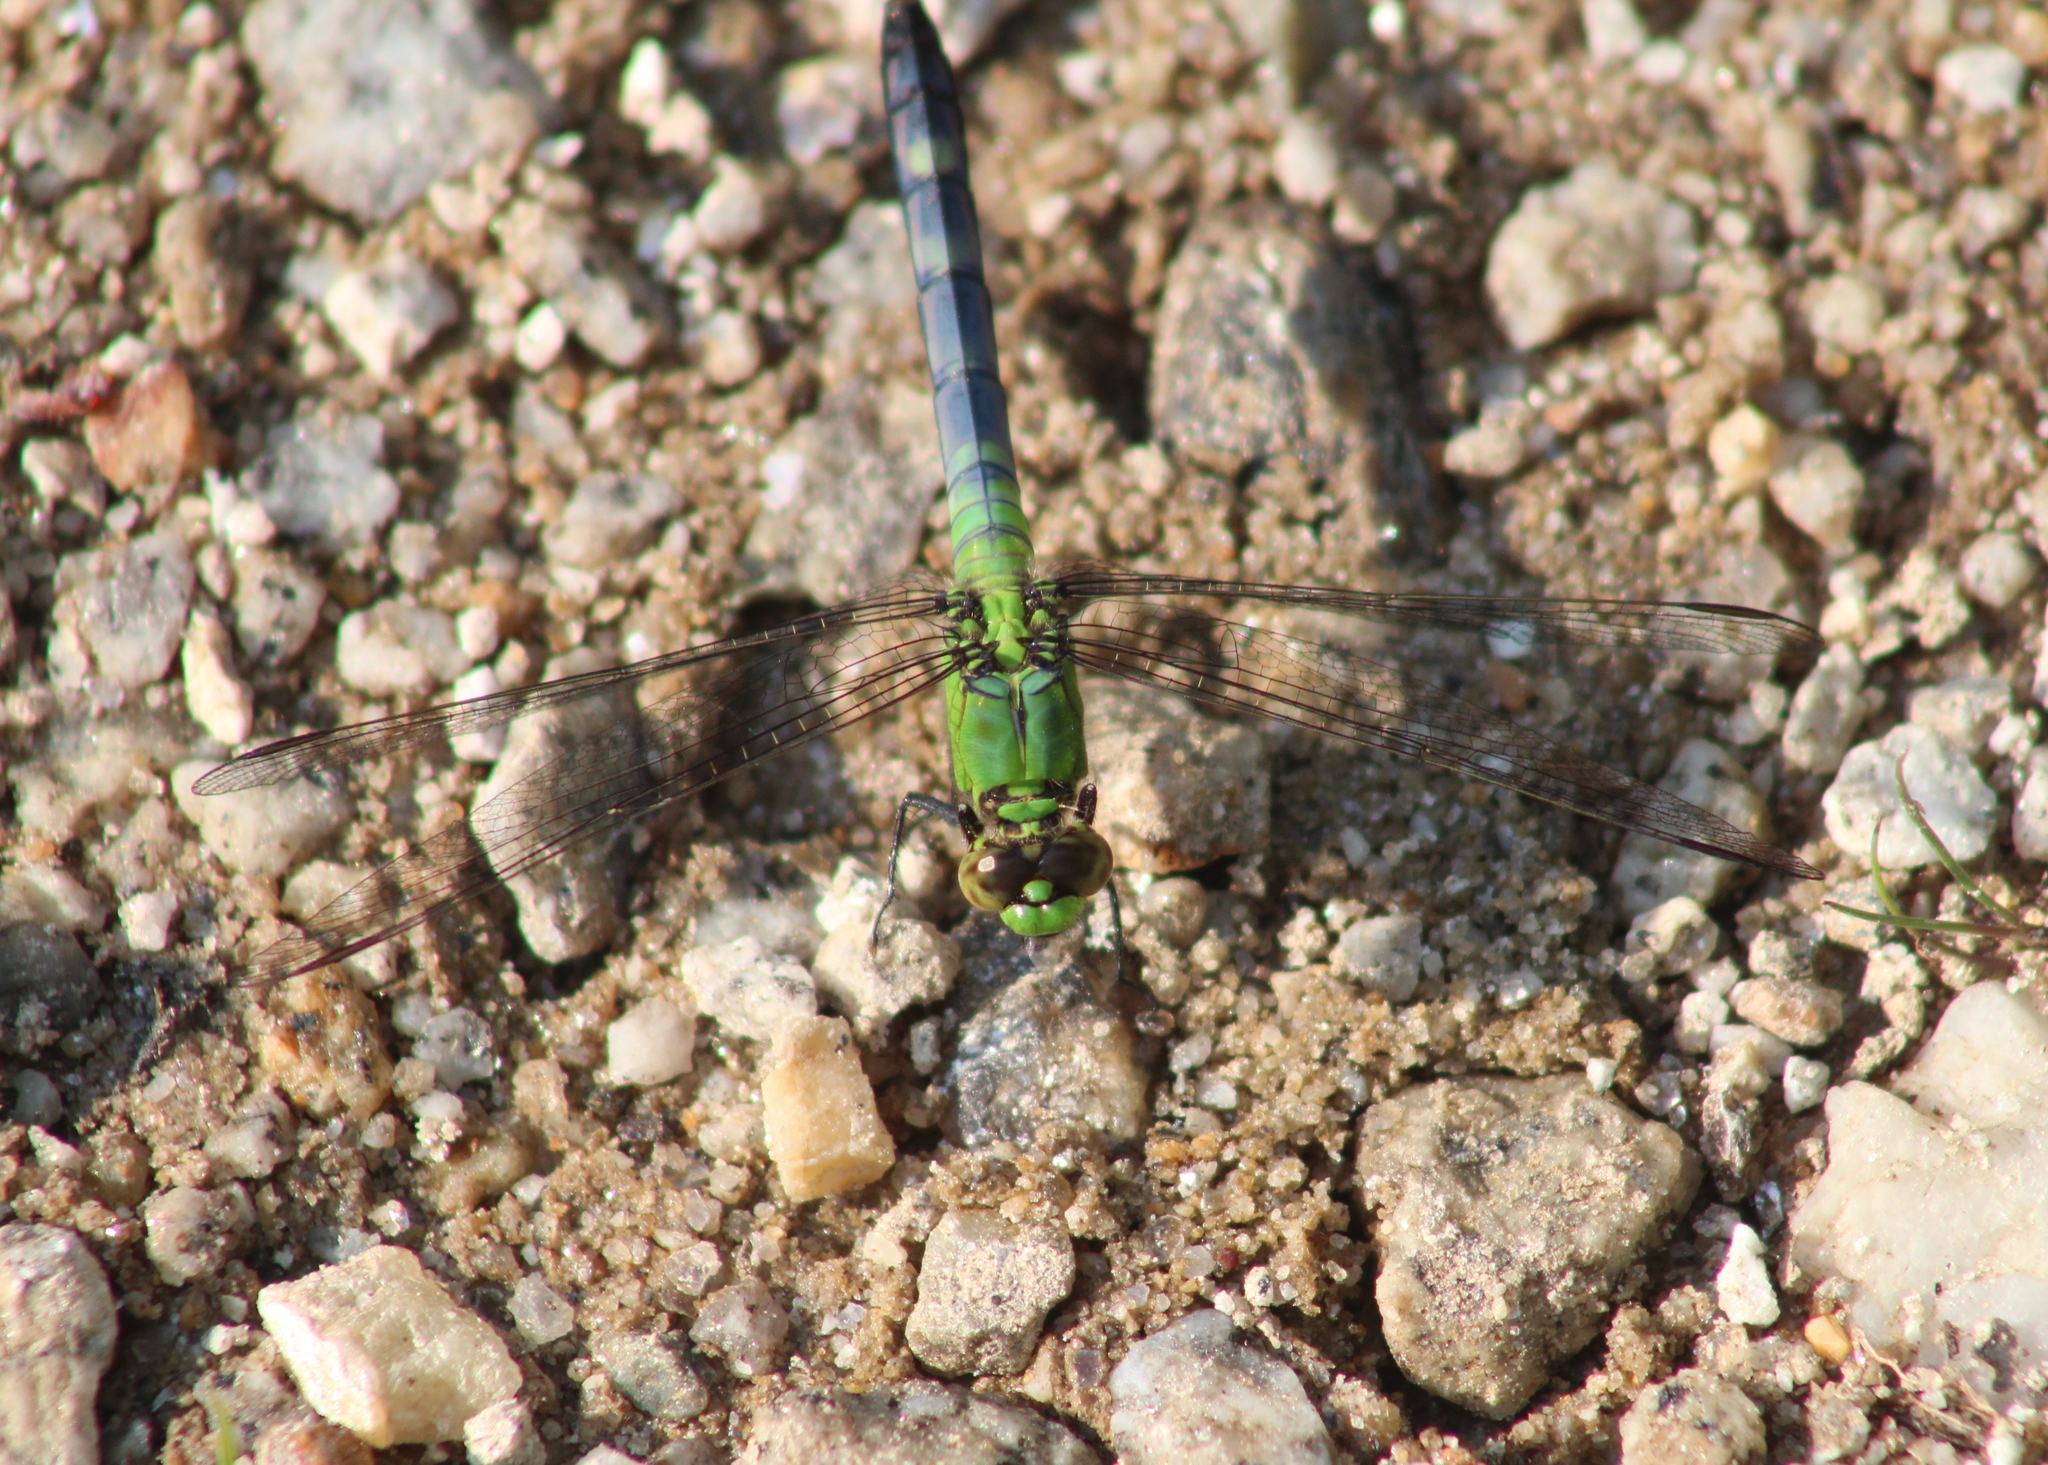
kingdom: Animalia
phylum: Arthropoda
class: Insecta
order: Odonata
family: Libellulidae
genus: Erythemis
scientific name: Erythemis simplicicollis
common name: Eastern pondhawk
